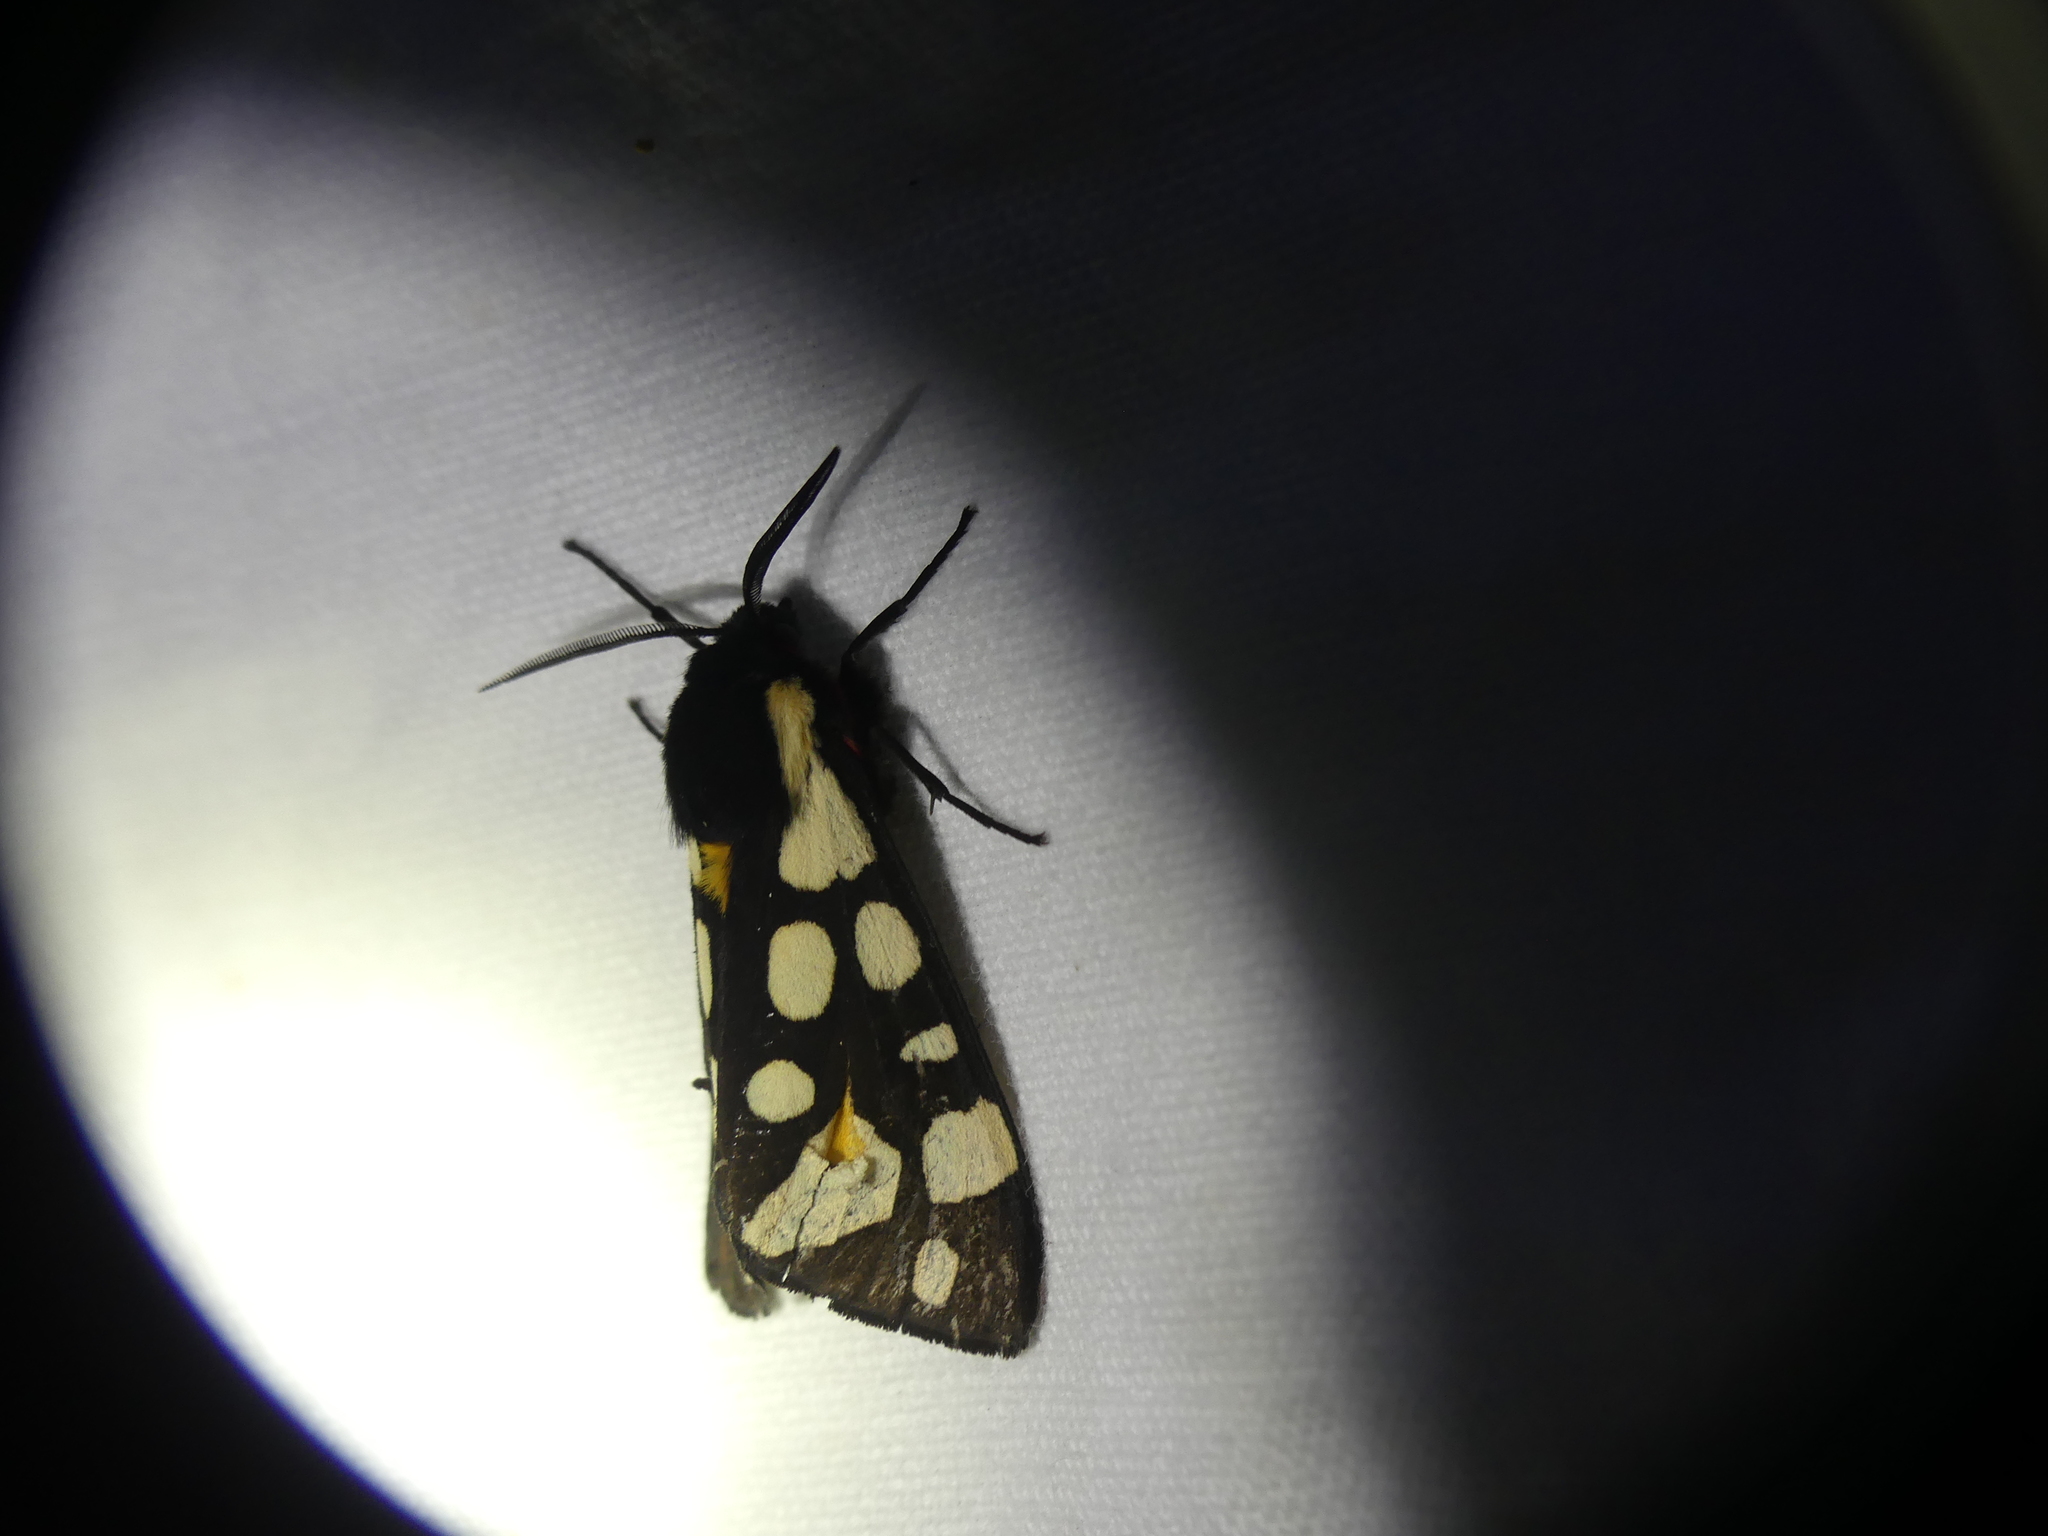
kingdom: Animalia
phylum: Arthropoda
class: Insecta
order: Lepidoptera
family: Erebidae
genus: Epicallia
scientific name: Epicallia villica
